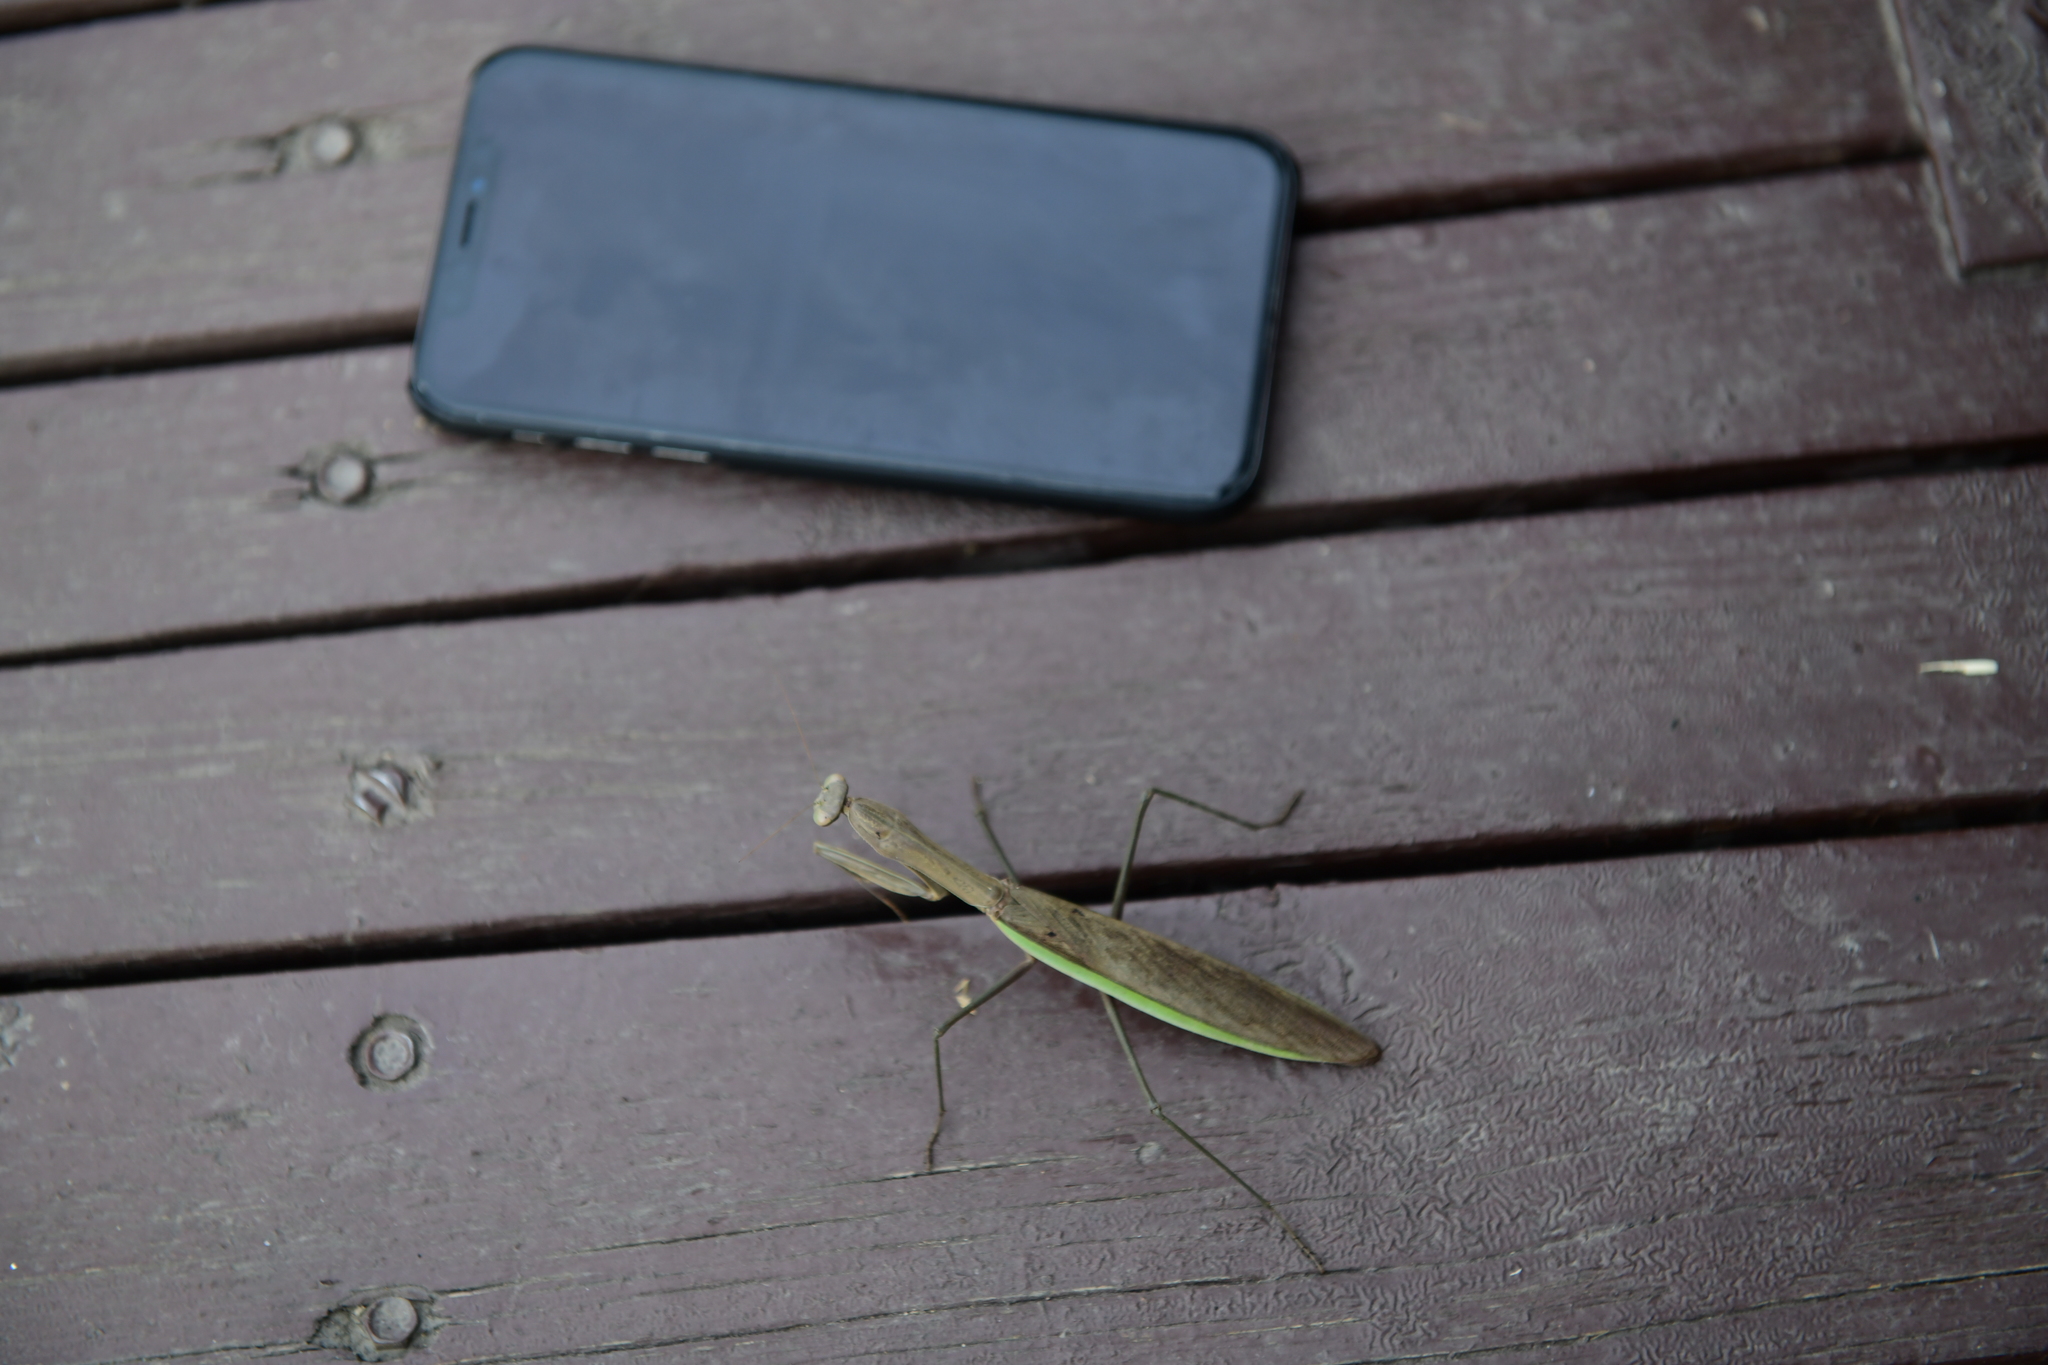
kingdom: Animalia
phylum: Arthropoda
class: Insecta
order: Mantodea
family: Mantidae
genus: Tenodera
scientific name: Tenodera sinensis
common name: Chinese mantis
